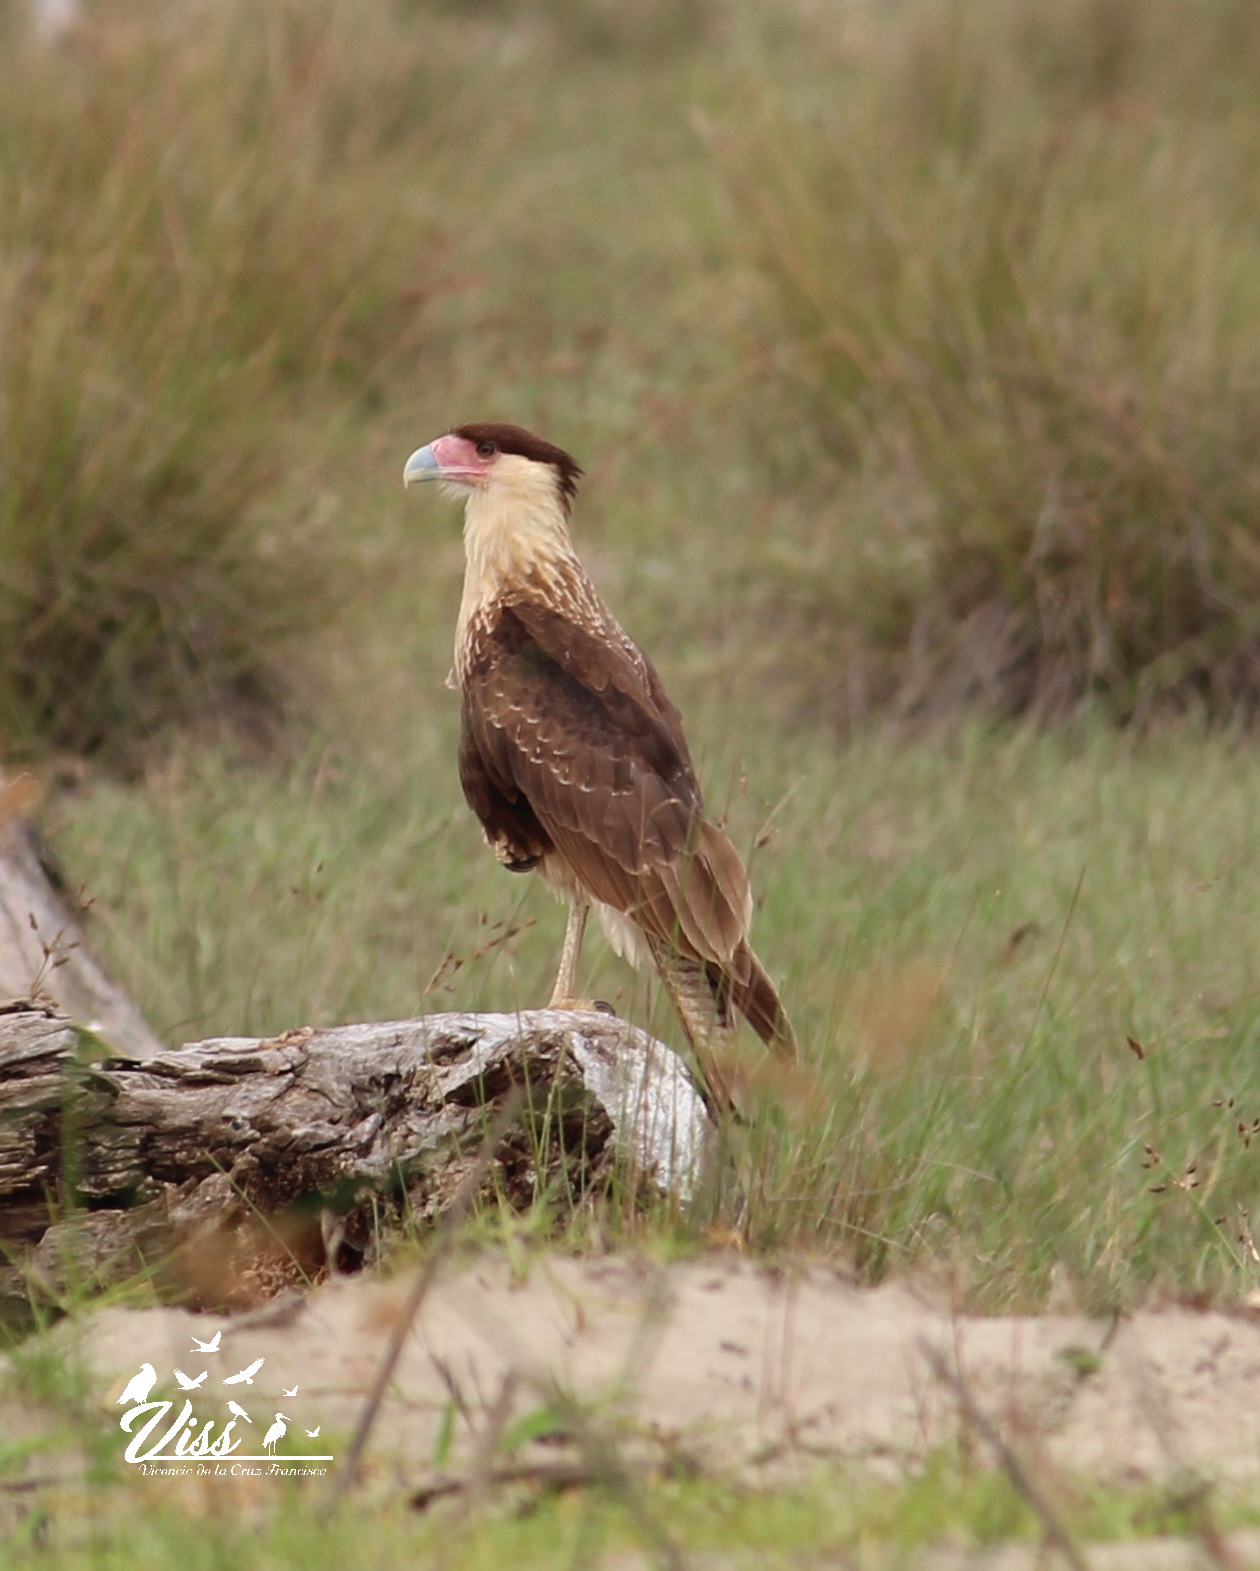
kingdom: Animalia
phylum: Chordata
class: Aves
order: Falconiformes
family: Falconidae
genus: Caracara
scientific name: Caracara plancus
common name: Southern caracara
